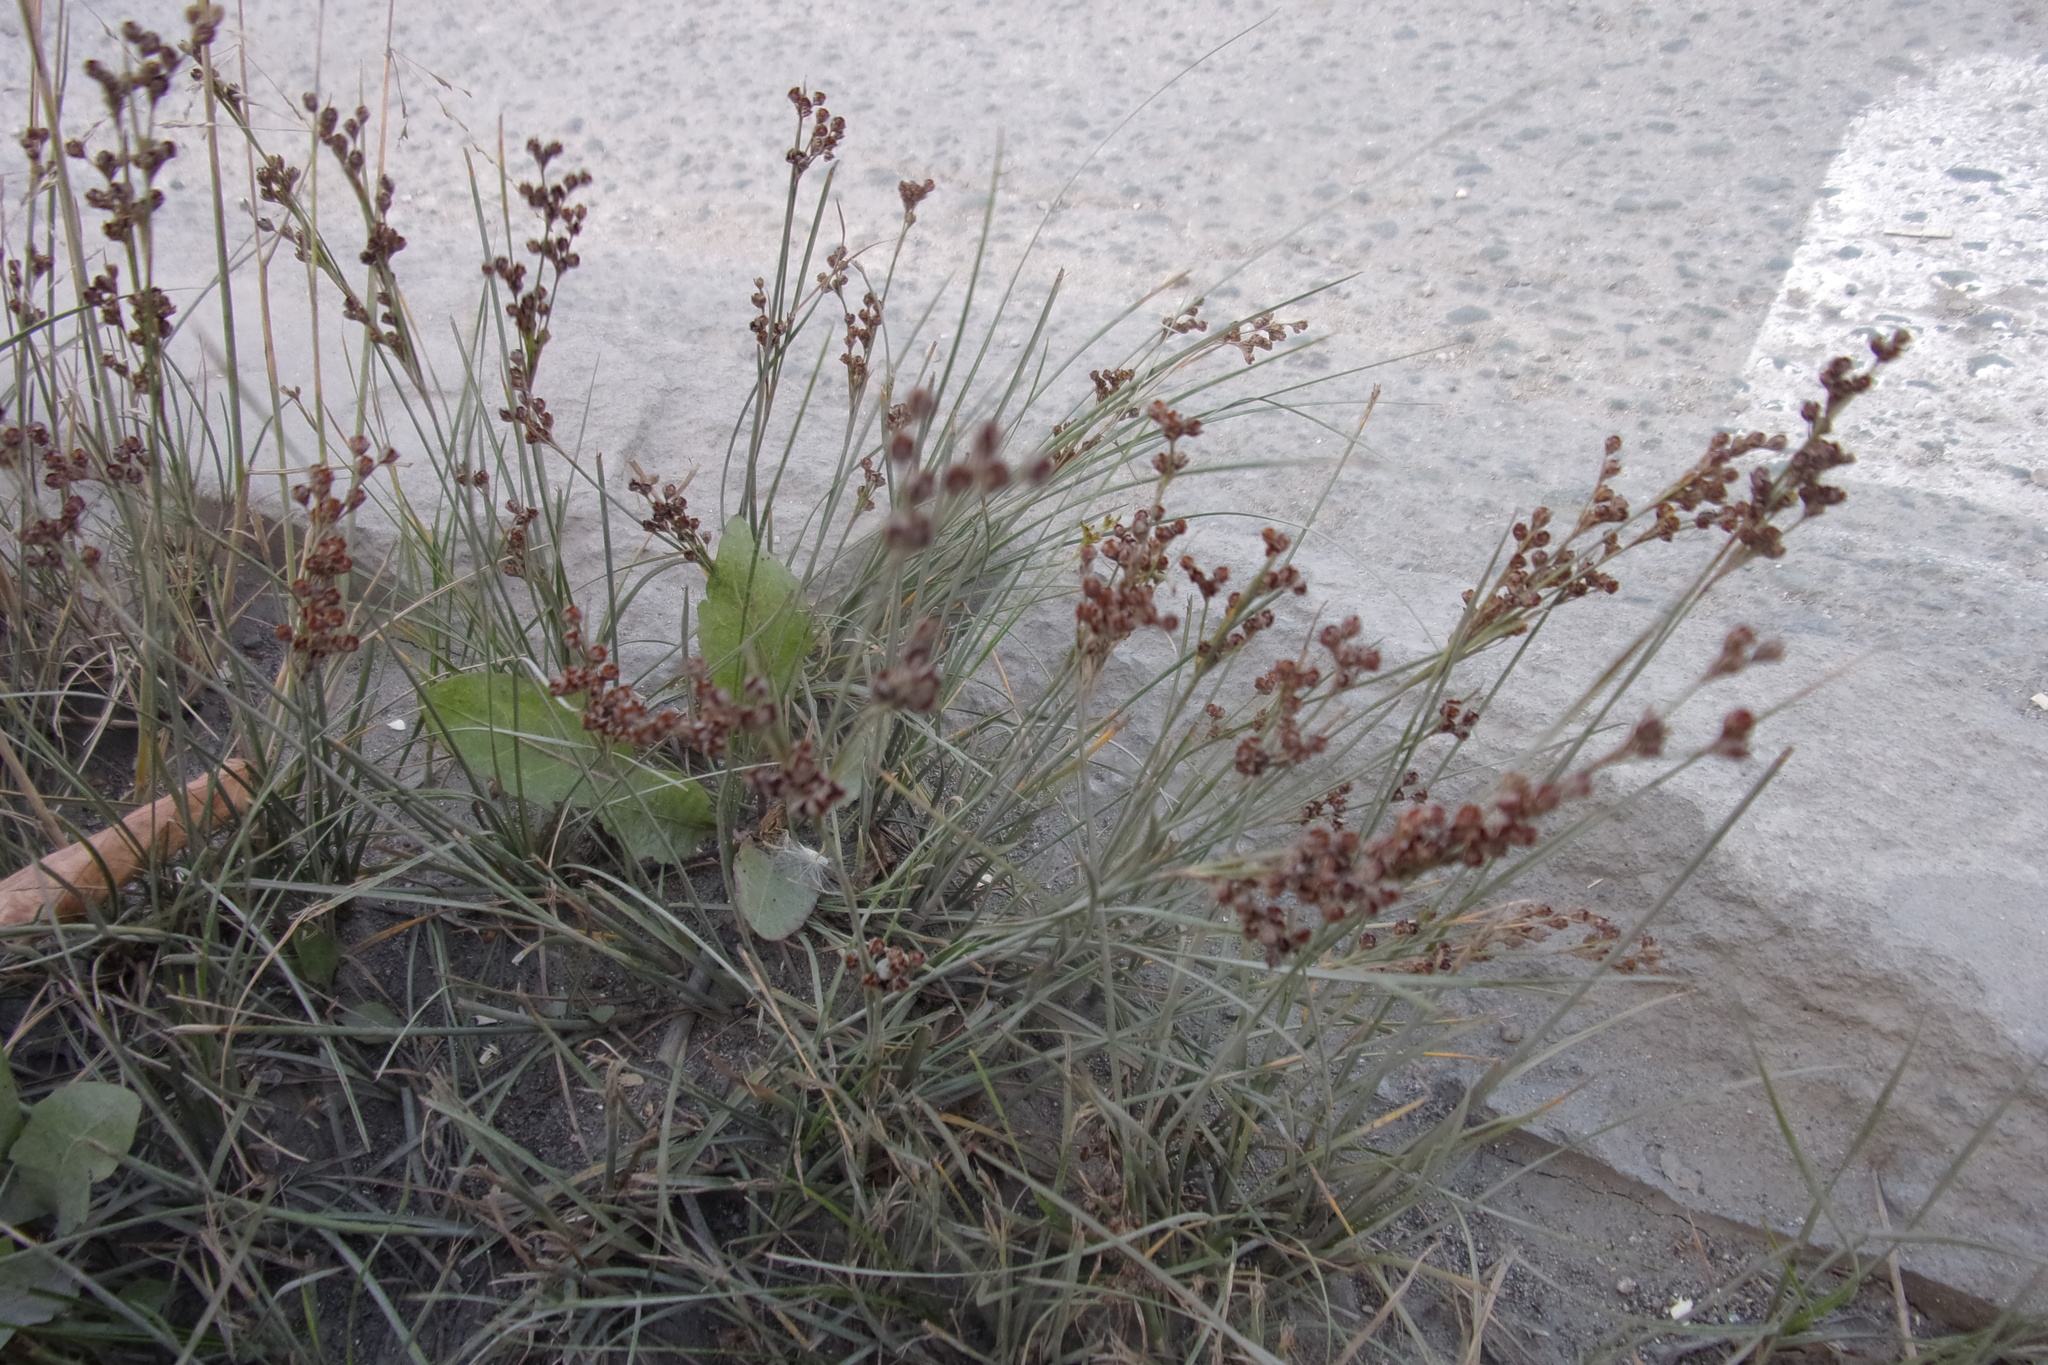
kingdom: Plantae
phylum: Tracheophyta
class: Liliopsida
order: Poales
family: Juncaceae
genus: Juncus
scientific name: Juncus compressus
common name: Round-fruited rush
